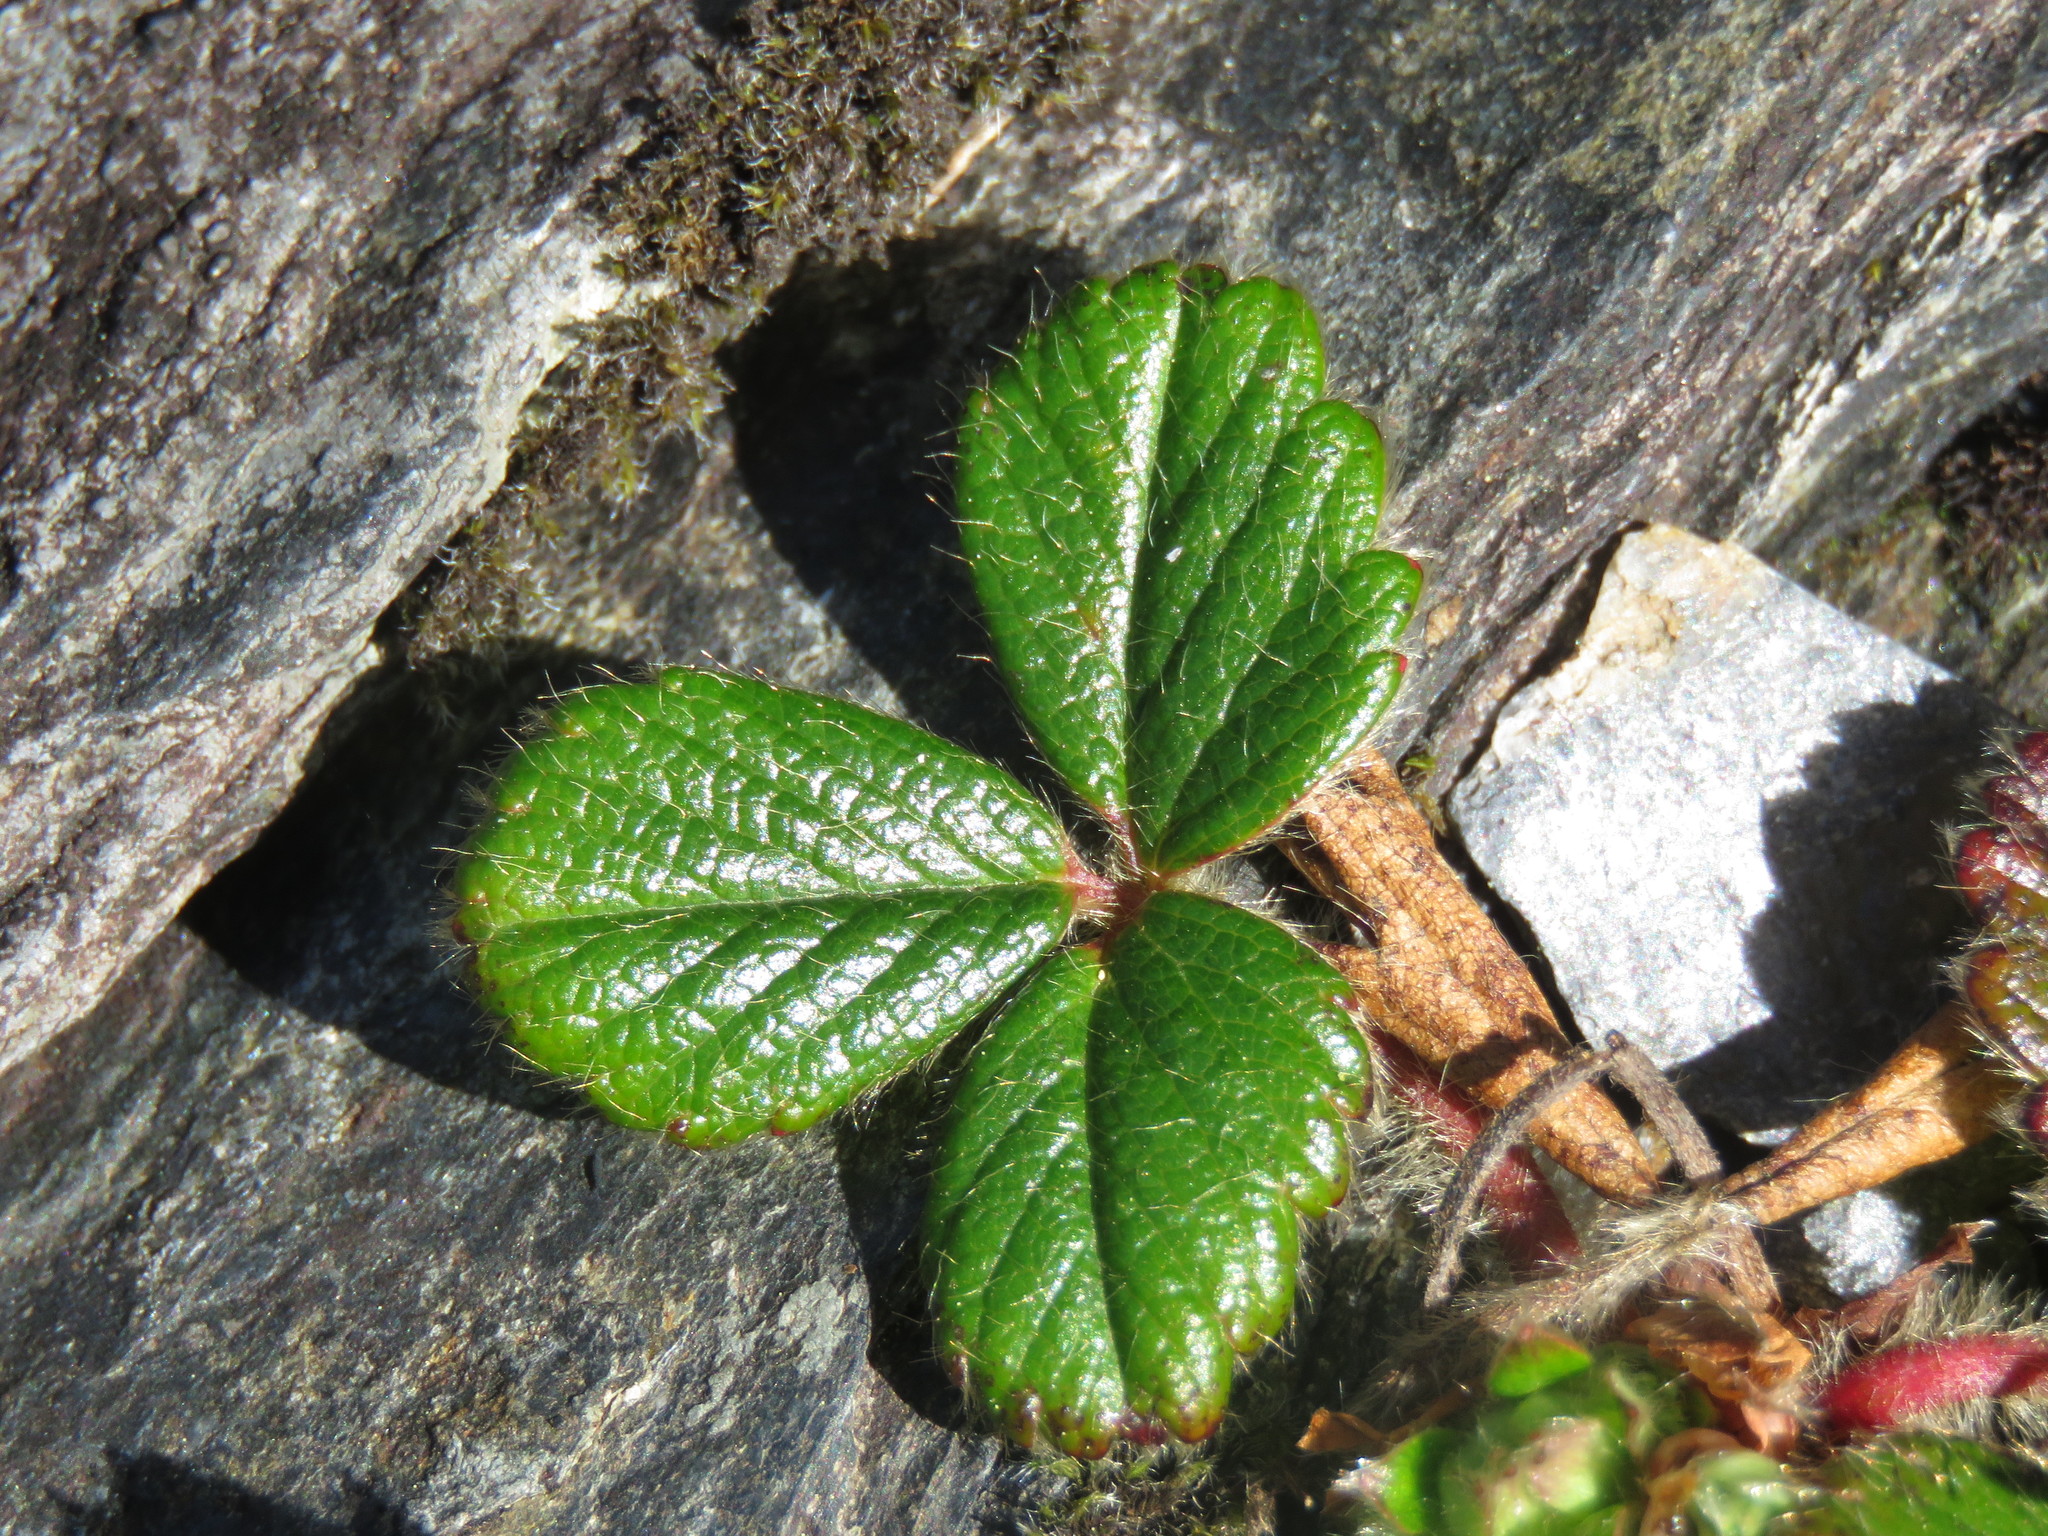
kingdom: Plantae
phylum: Tracheophyta
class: Magnoliopsida
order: Rosales
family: Rosaceae
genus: Fragaria
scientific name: Fragaria chiloensis
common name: Beach strawberry
